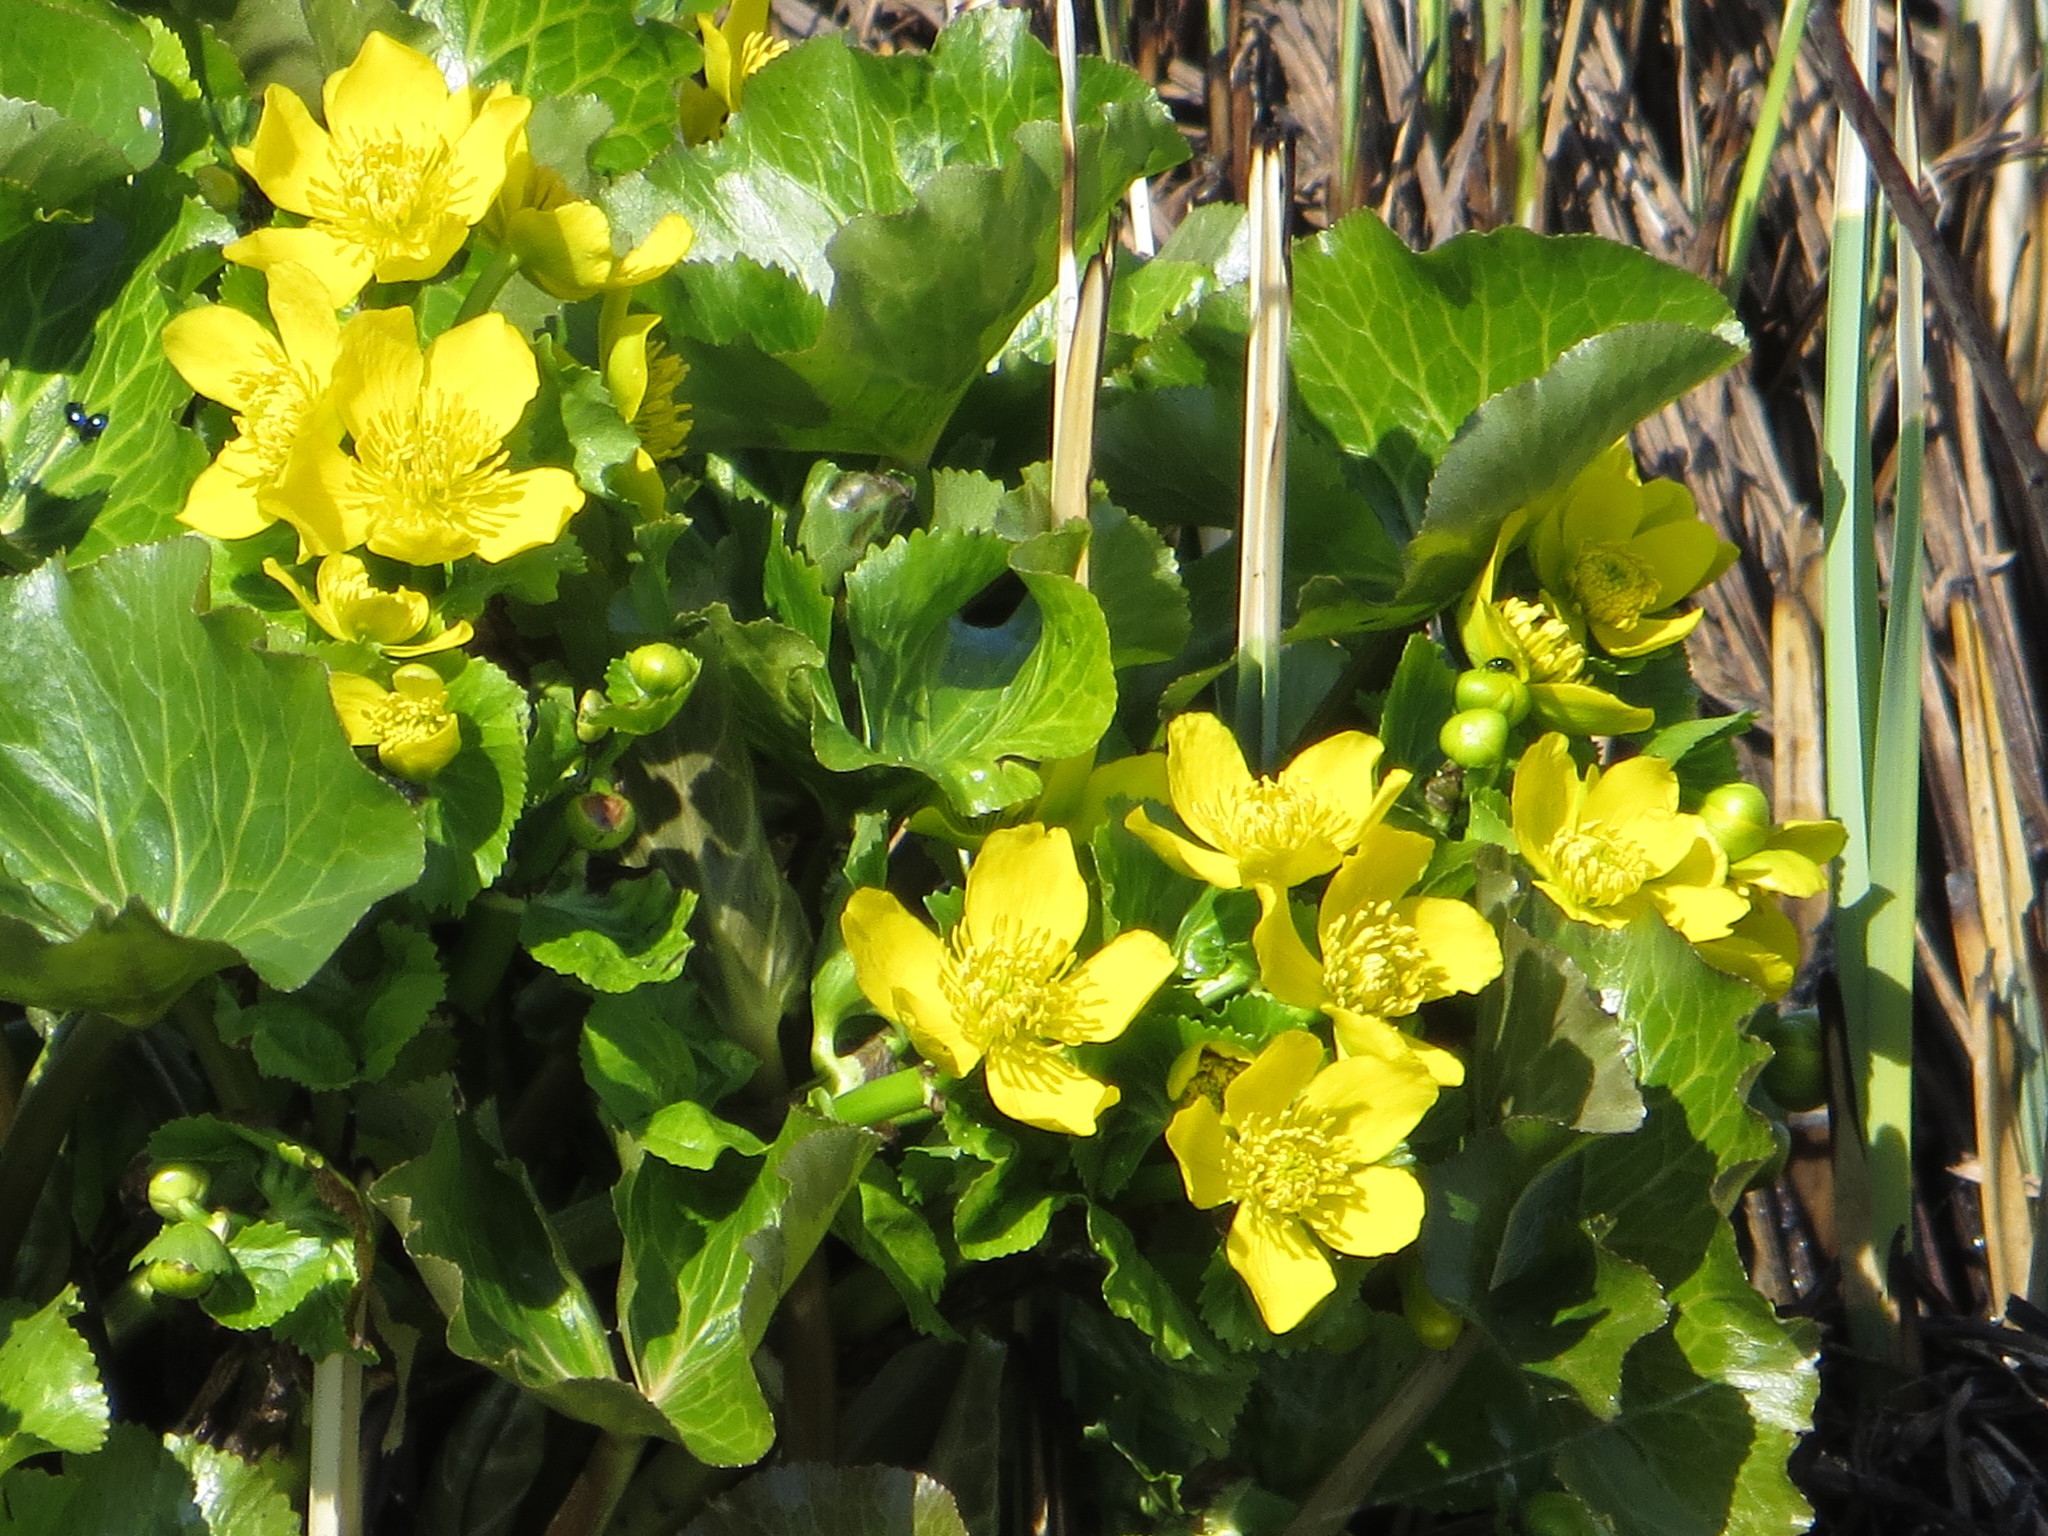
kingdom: Plantae
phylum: Tracheophyta
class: Magnoliopsida
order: Ranunculales
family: Ranunculaceae
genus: Caltha
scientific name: Caltha palustris
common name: Marsh marigold
